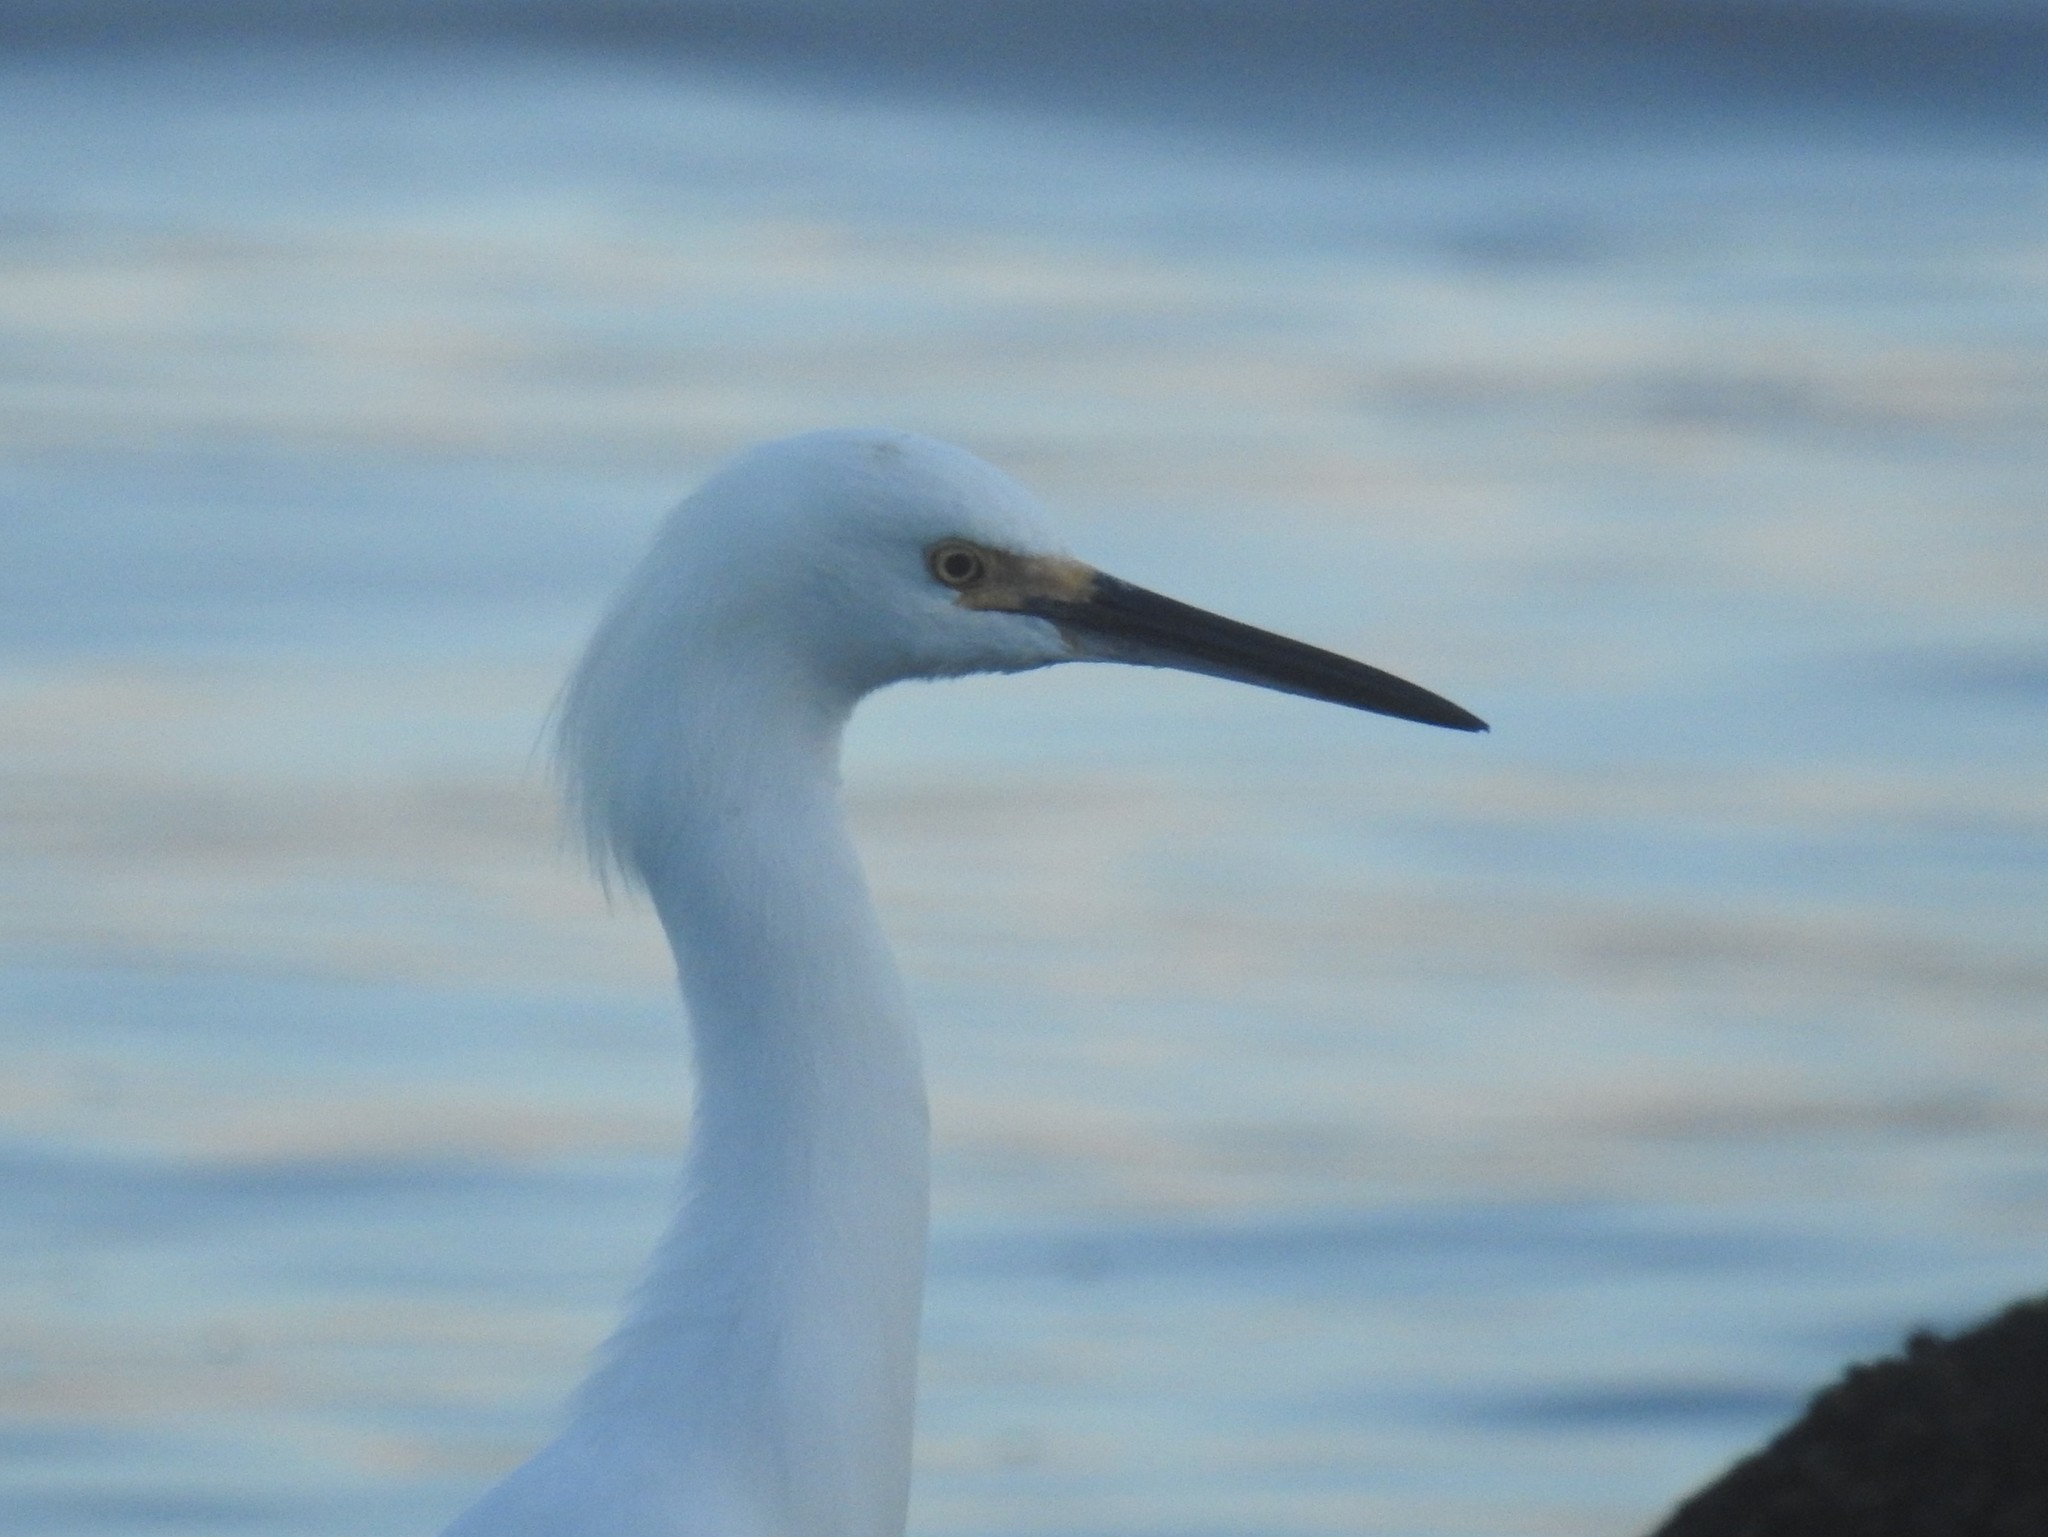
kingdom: Animalia
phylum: Chordata
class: Aves
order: Pelecaniformes
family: Ardeidae
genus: Egretta
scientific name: Egretta thula
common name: Snowy egret
